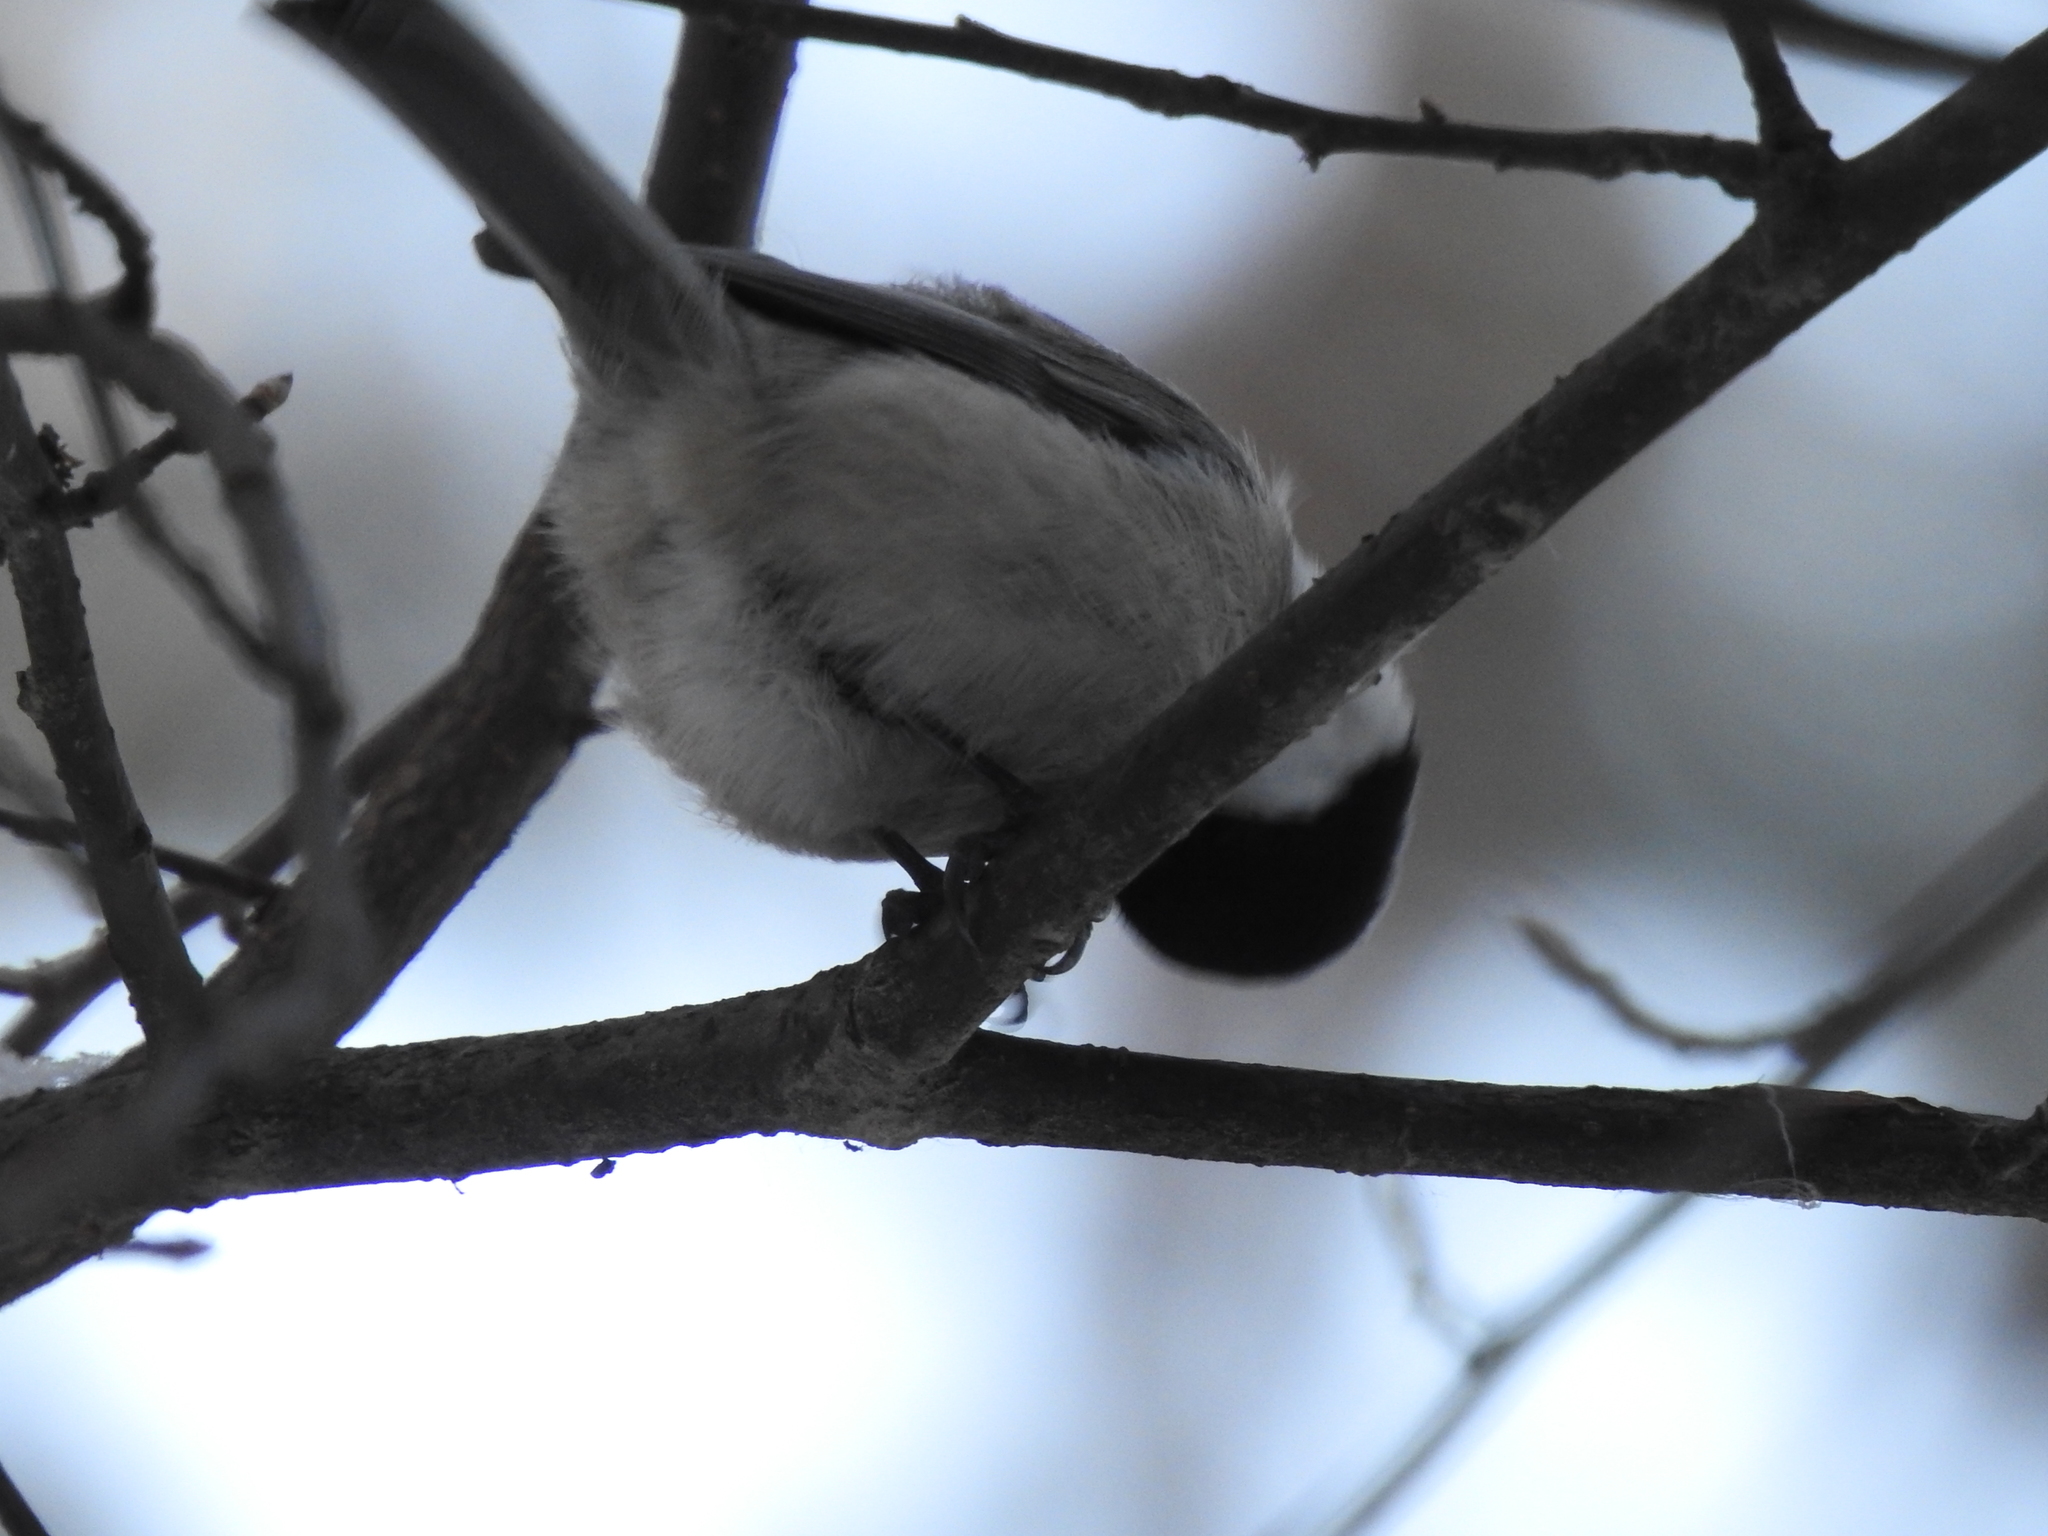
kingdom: Animalia
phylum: Chordata
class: Aves
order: Passeriformes
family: Paridae
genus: Poecile
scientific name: Poecile montanus
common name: Willow tit
